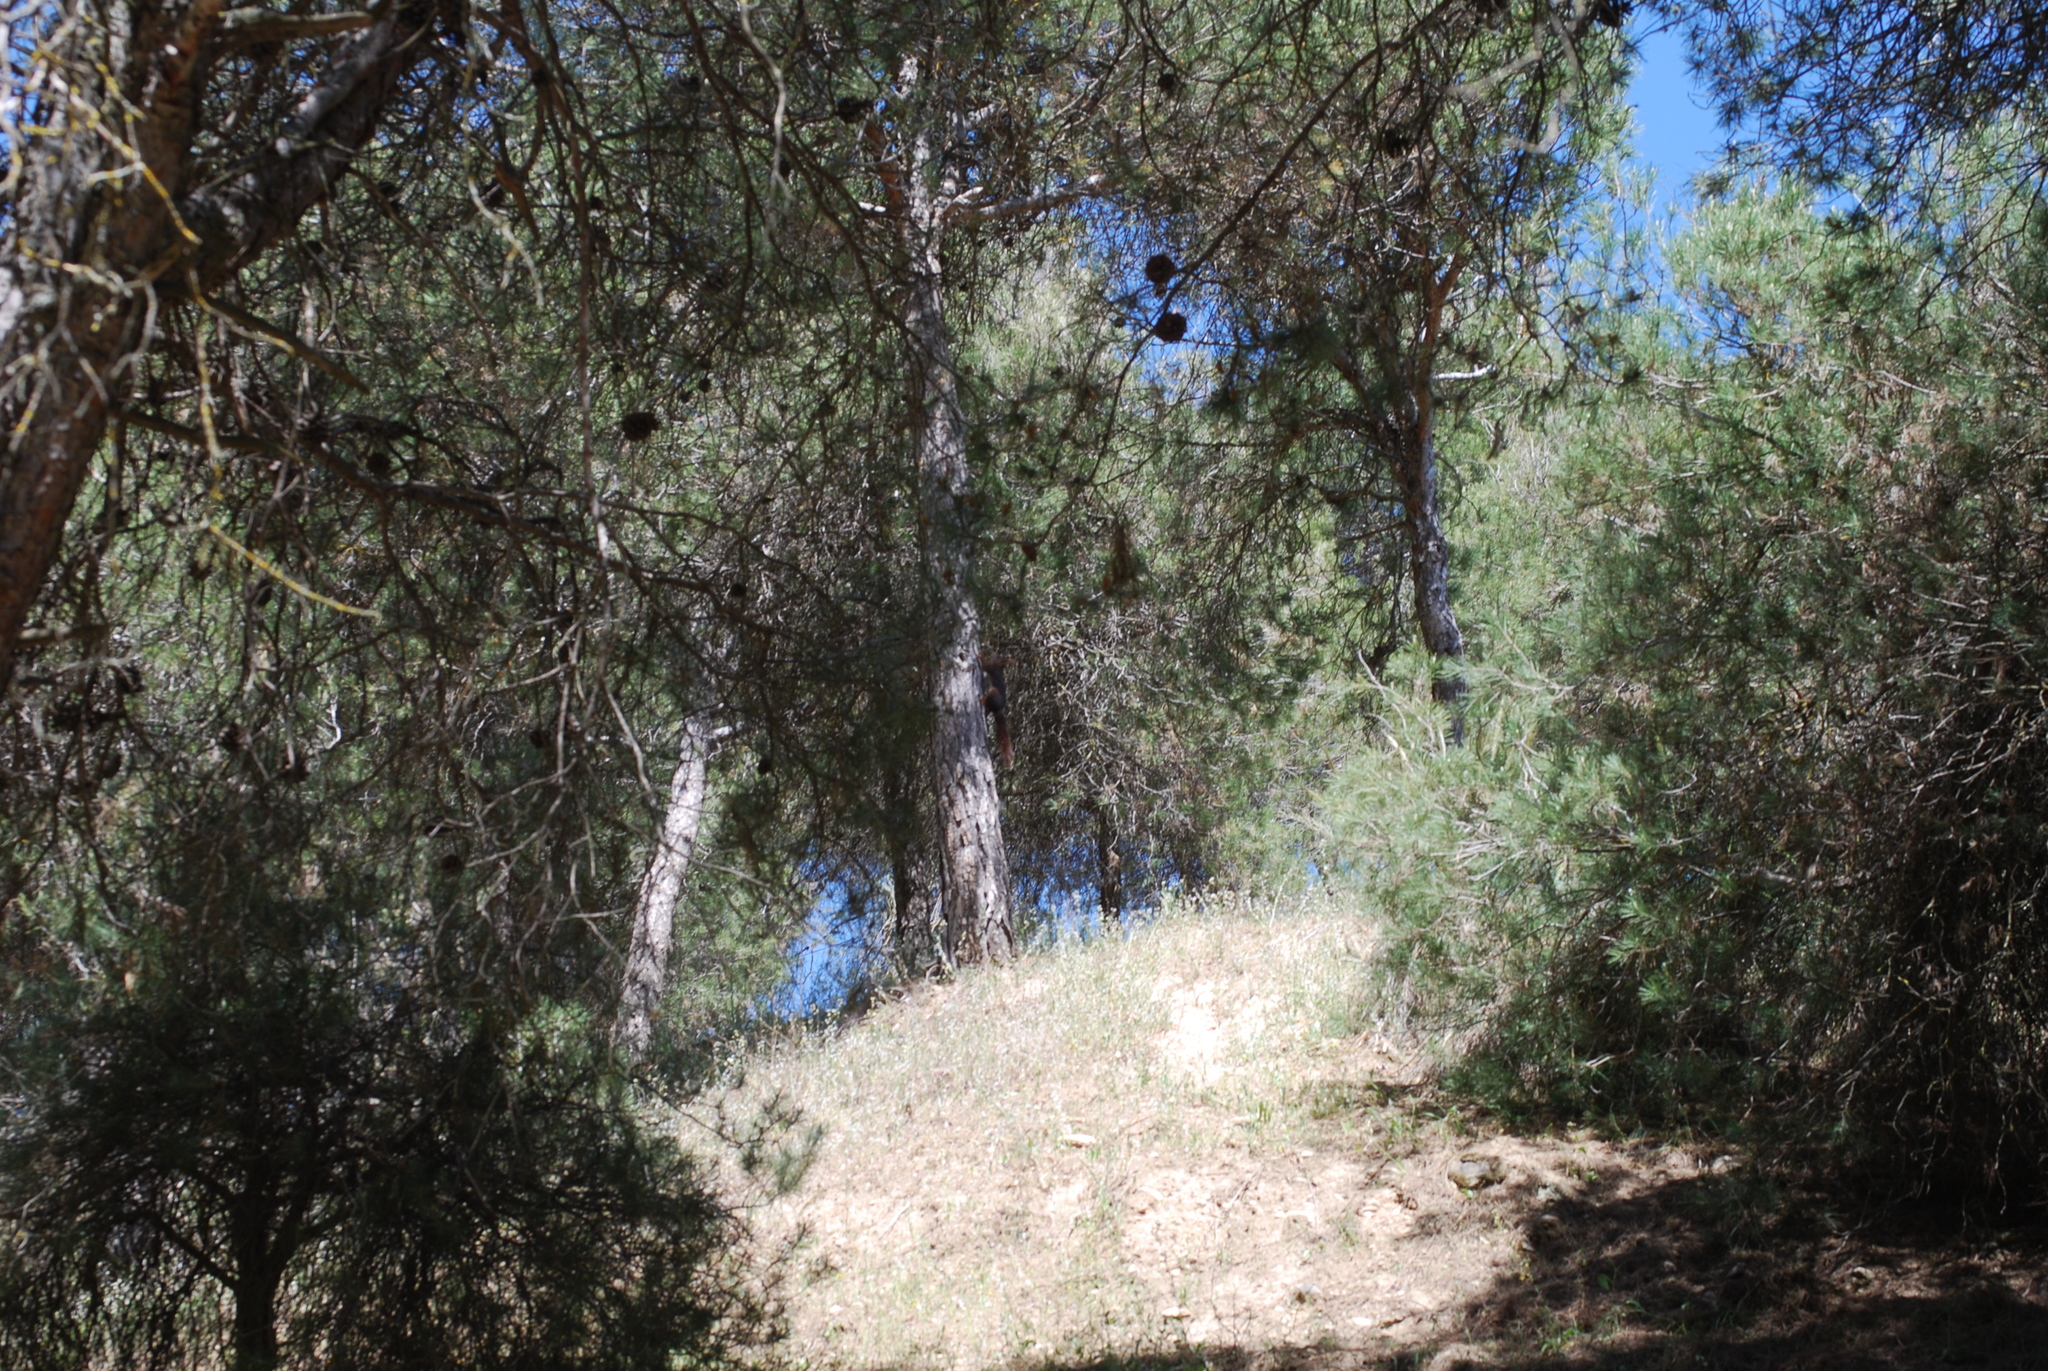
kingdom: Animalia
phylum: Chordata
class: Mammalia
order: Rodentia
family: Sciuridae
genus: Sciurus
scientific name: Sciurus vulgaris
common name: Eurasian red squirrel
